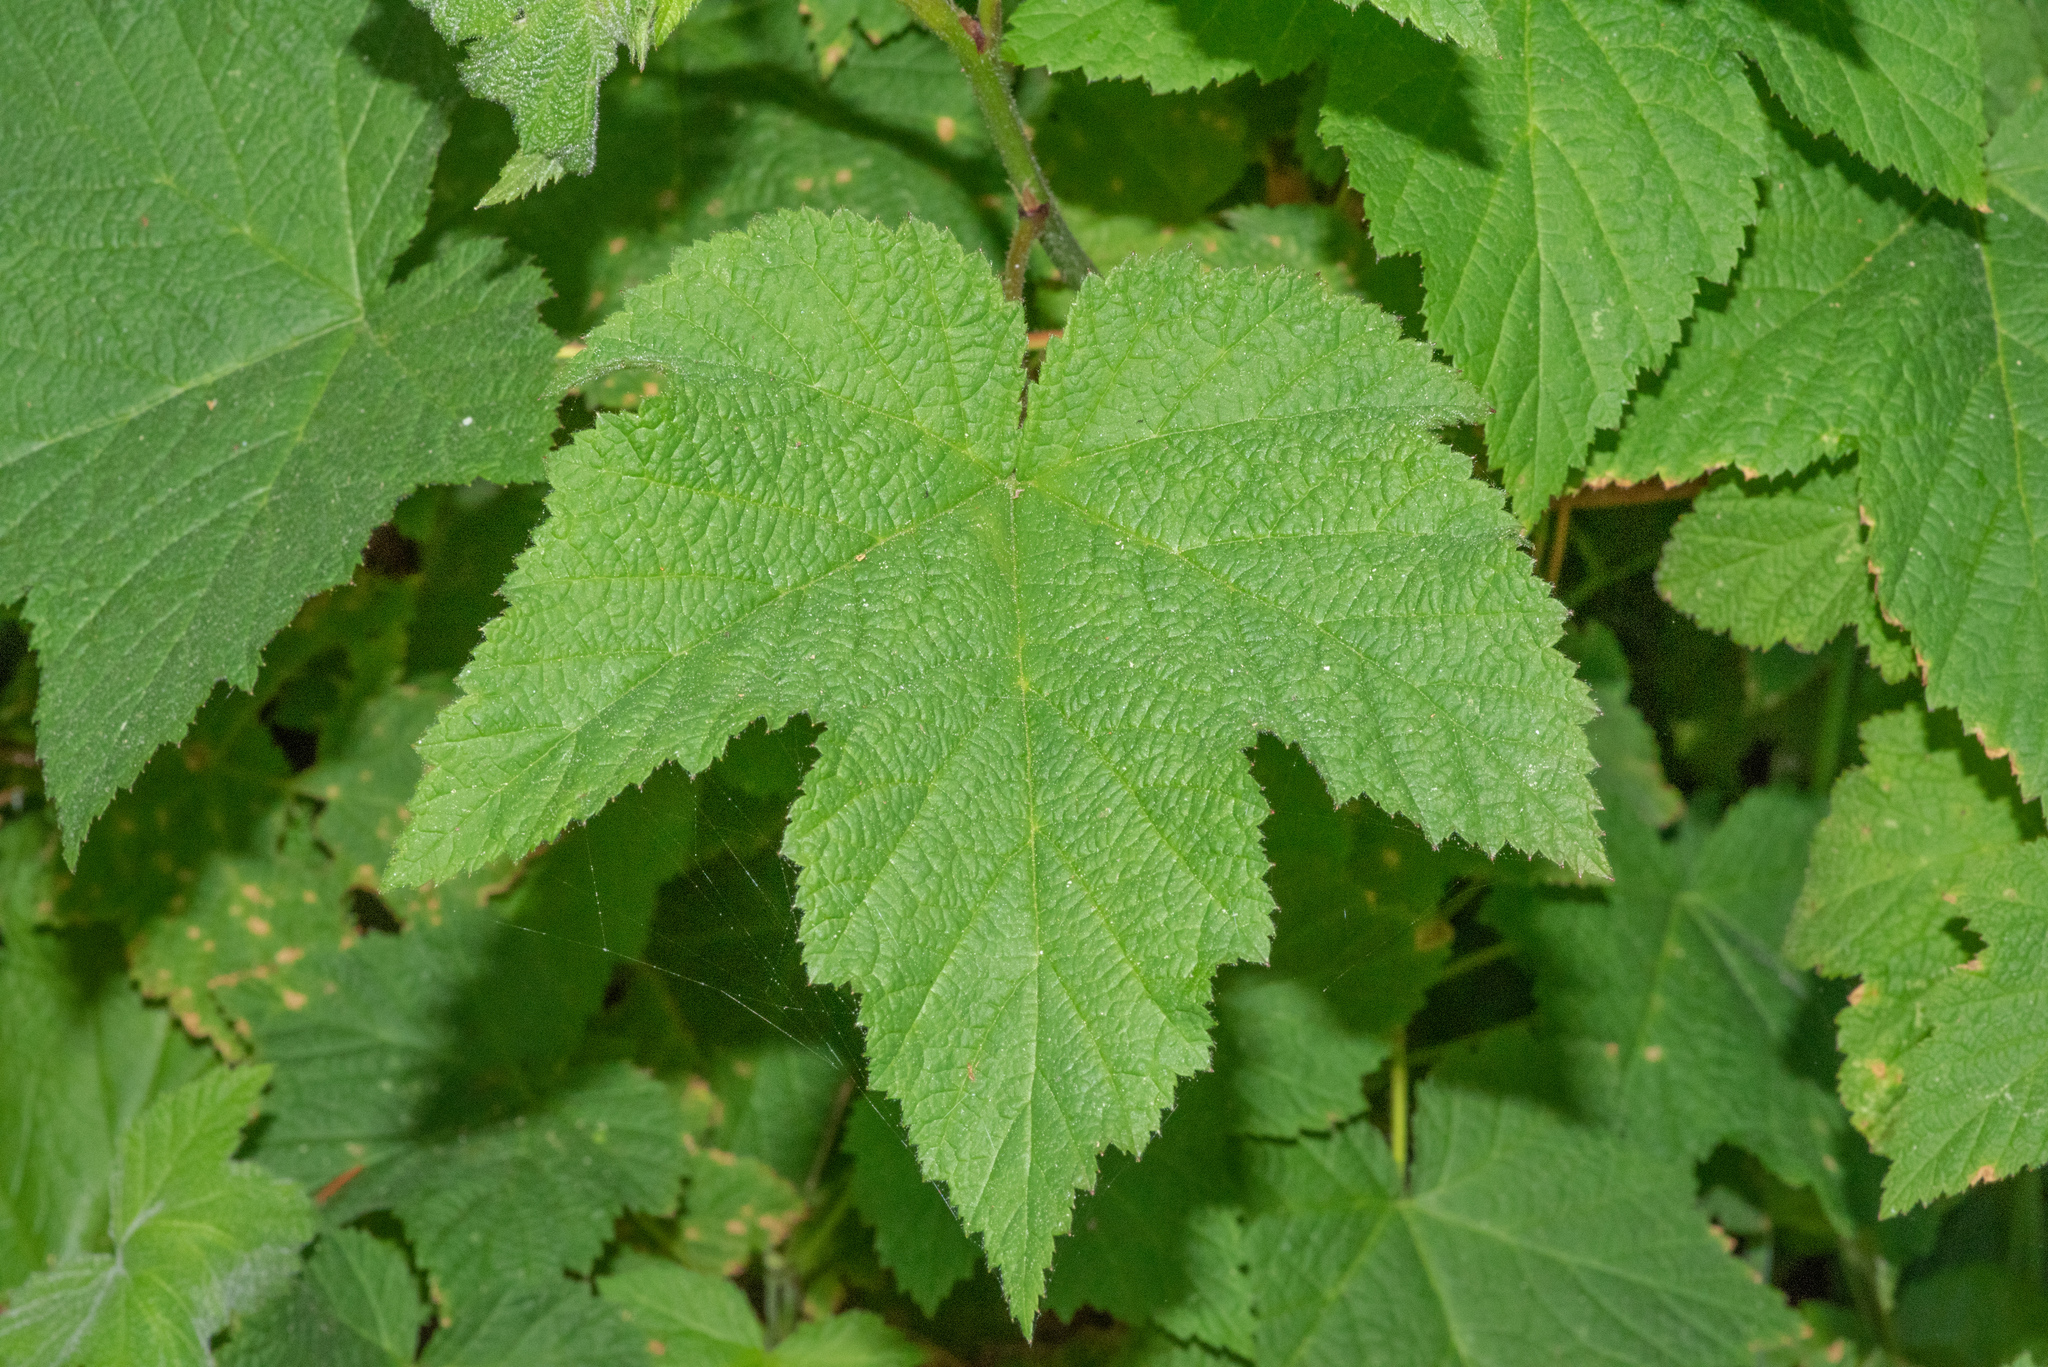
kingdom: Plantae
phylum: Tracheophyta
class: Magnoliopsida
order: Rosales
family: Rosaceae
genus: Rubus
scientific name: Rubus parviflorus
